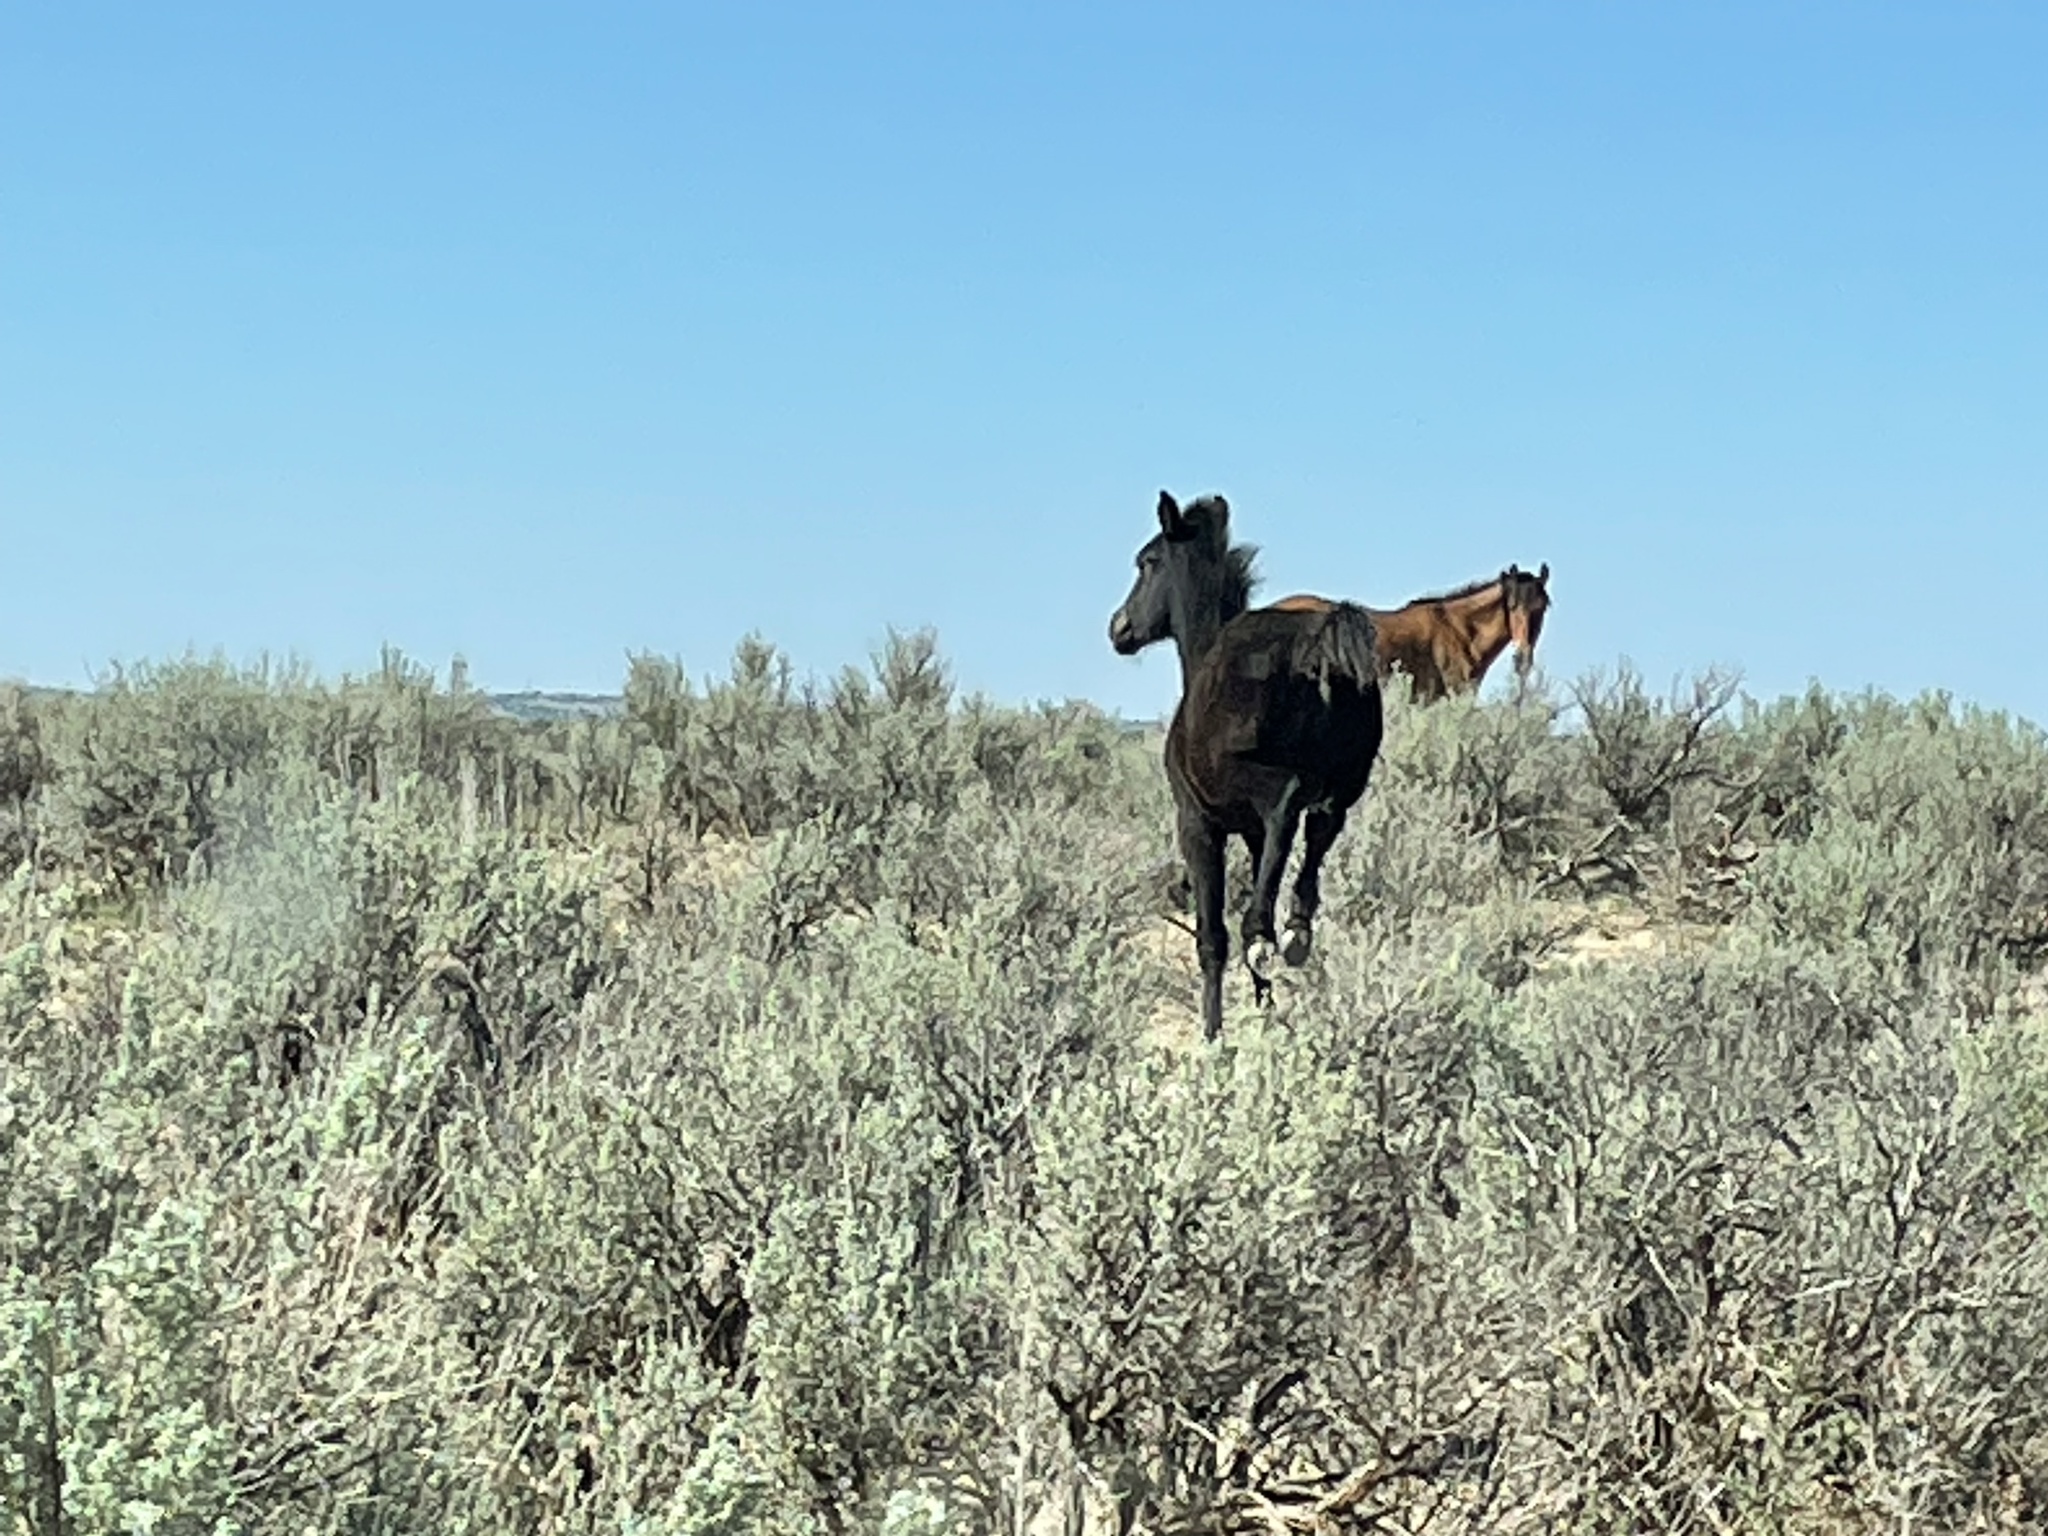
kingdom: Animalia
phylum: Chordata
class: Mammalia
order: Perissodactyla
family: Equidae
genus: Equus
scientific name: Equus caballus
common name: Horse
